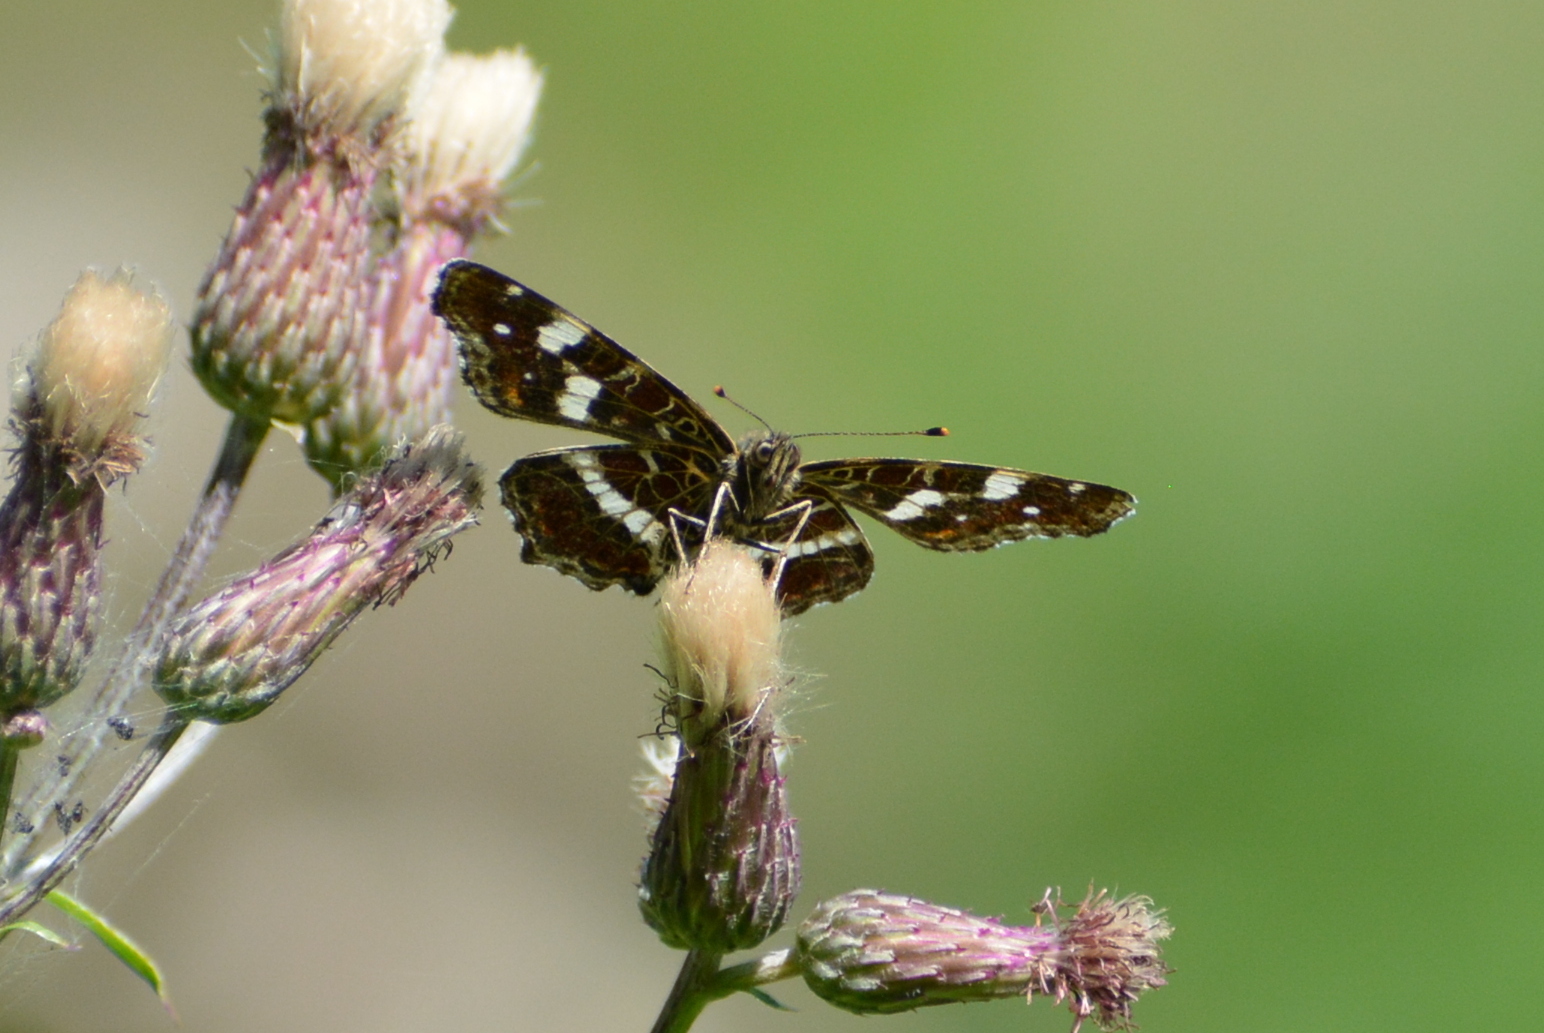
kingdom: Animalia
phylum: Arthropoda
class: Insecta
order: Lepidoptera
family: Nymphalidae
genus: Araschnia
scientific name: Araschnia levana
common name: Map butterfly
